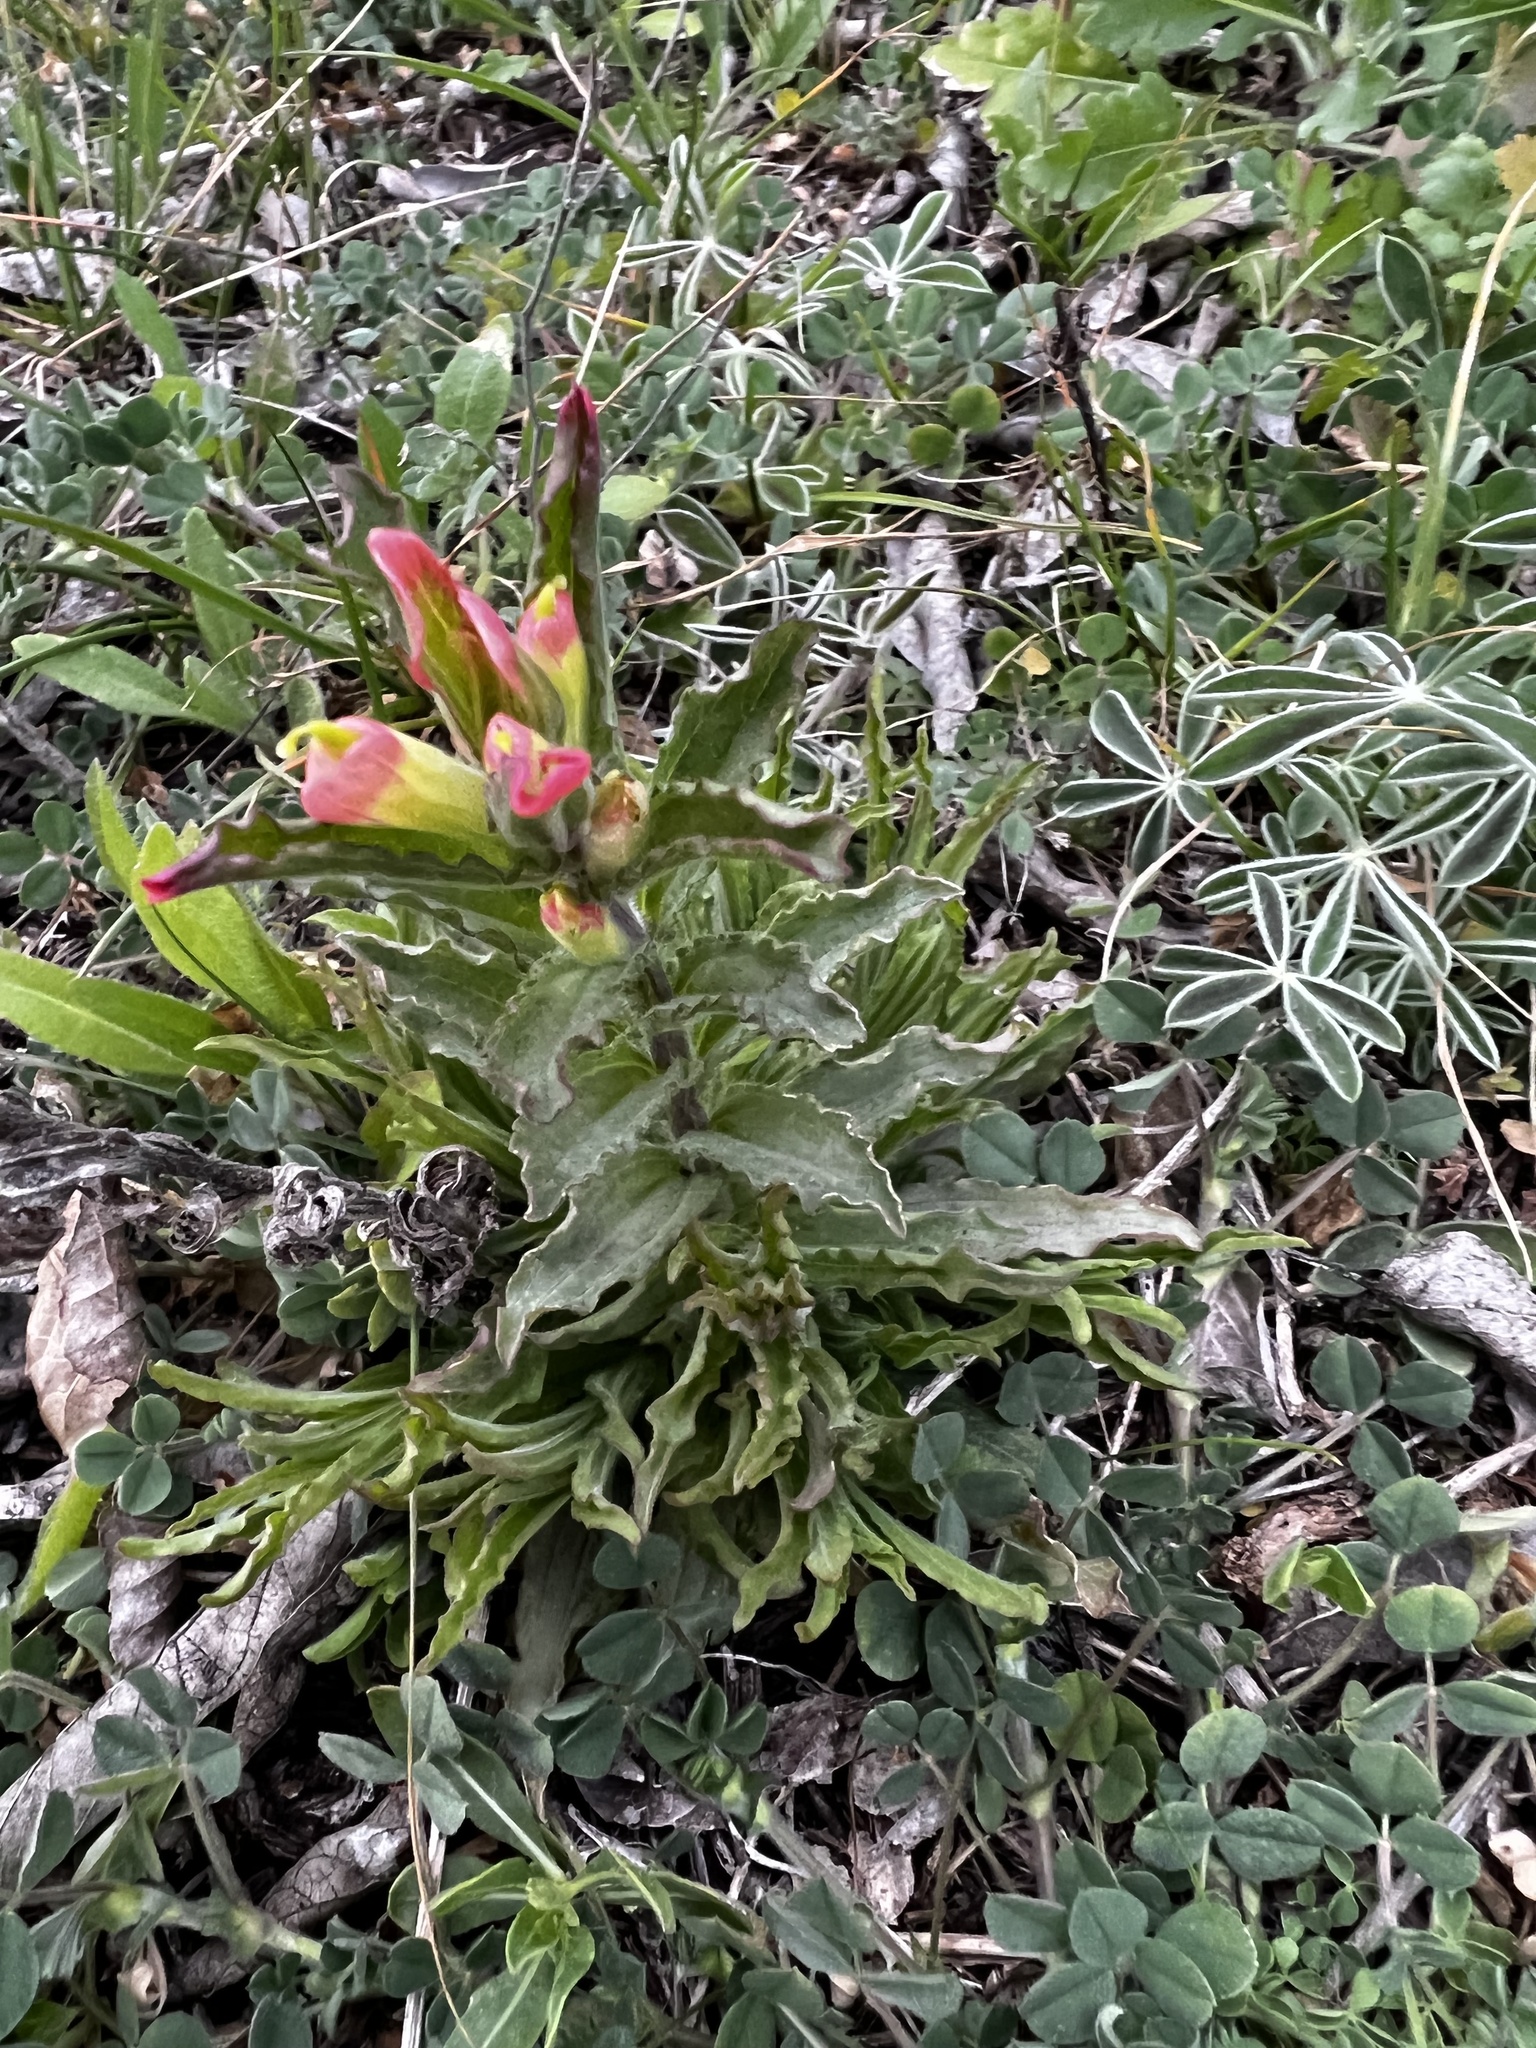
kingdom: Plantae
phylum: Tracheophyta
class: Magnoliopsida
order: Lamiales
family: Orobanchaceae
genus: Castilleja
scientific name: Castilleja indivisa
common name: Texas paintbrush
